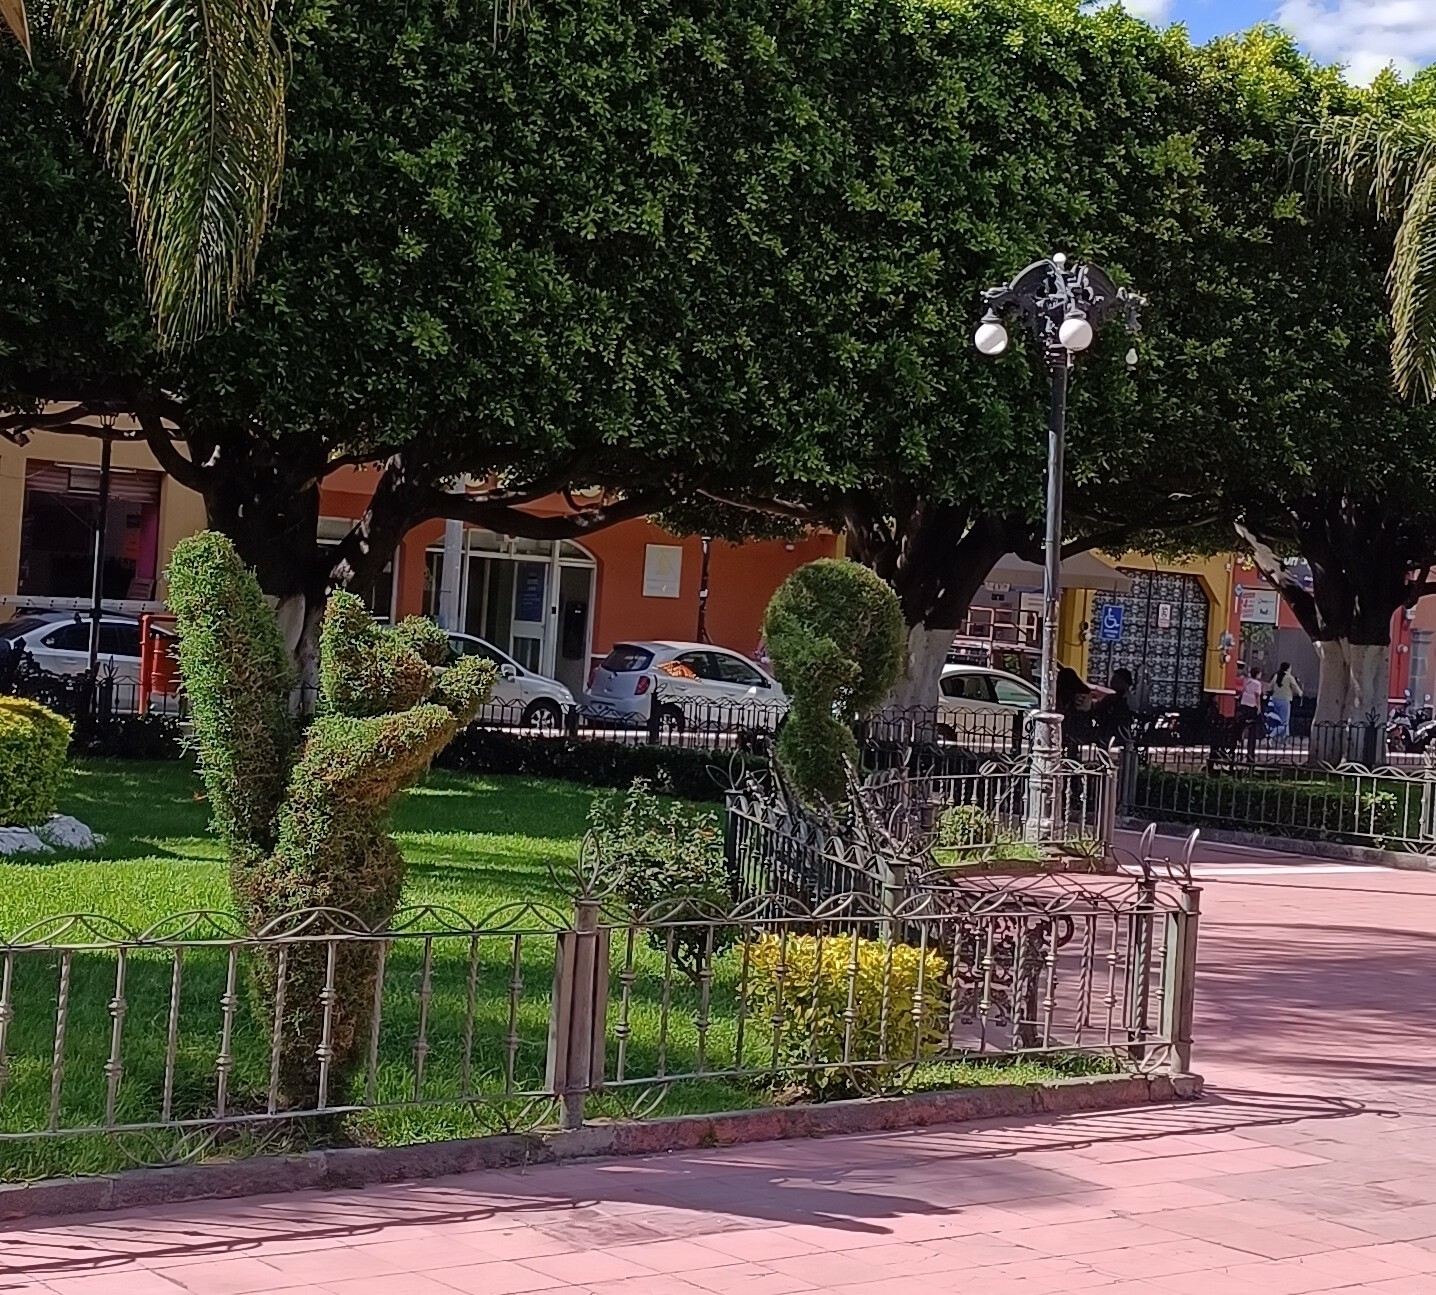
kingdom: Animalia
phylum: Arthropoda
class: Insecta
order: Lepidoptera
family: Nymphalidae
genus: Danaus
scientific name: Danaus plexippus
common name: Monarch
